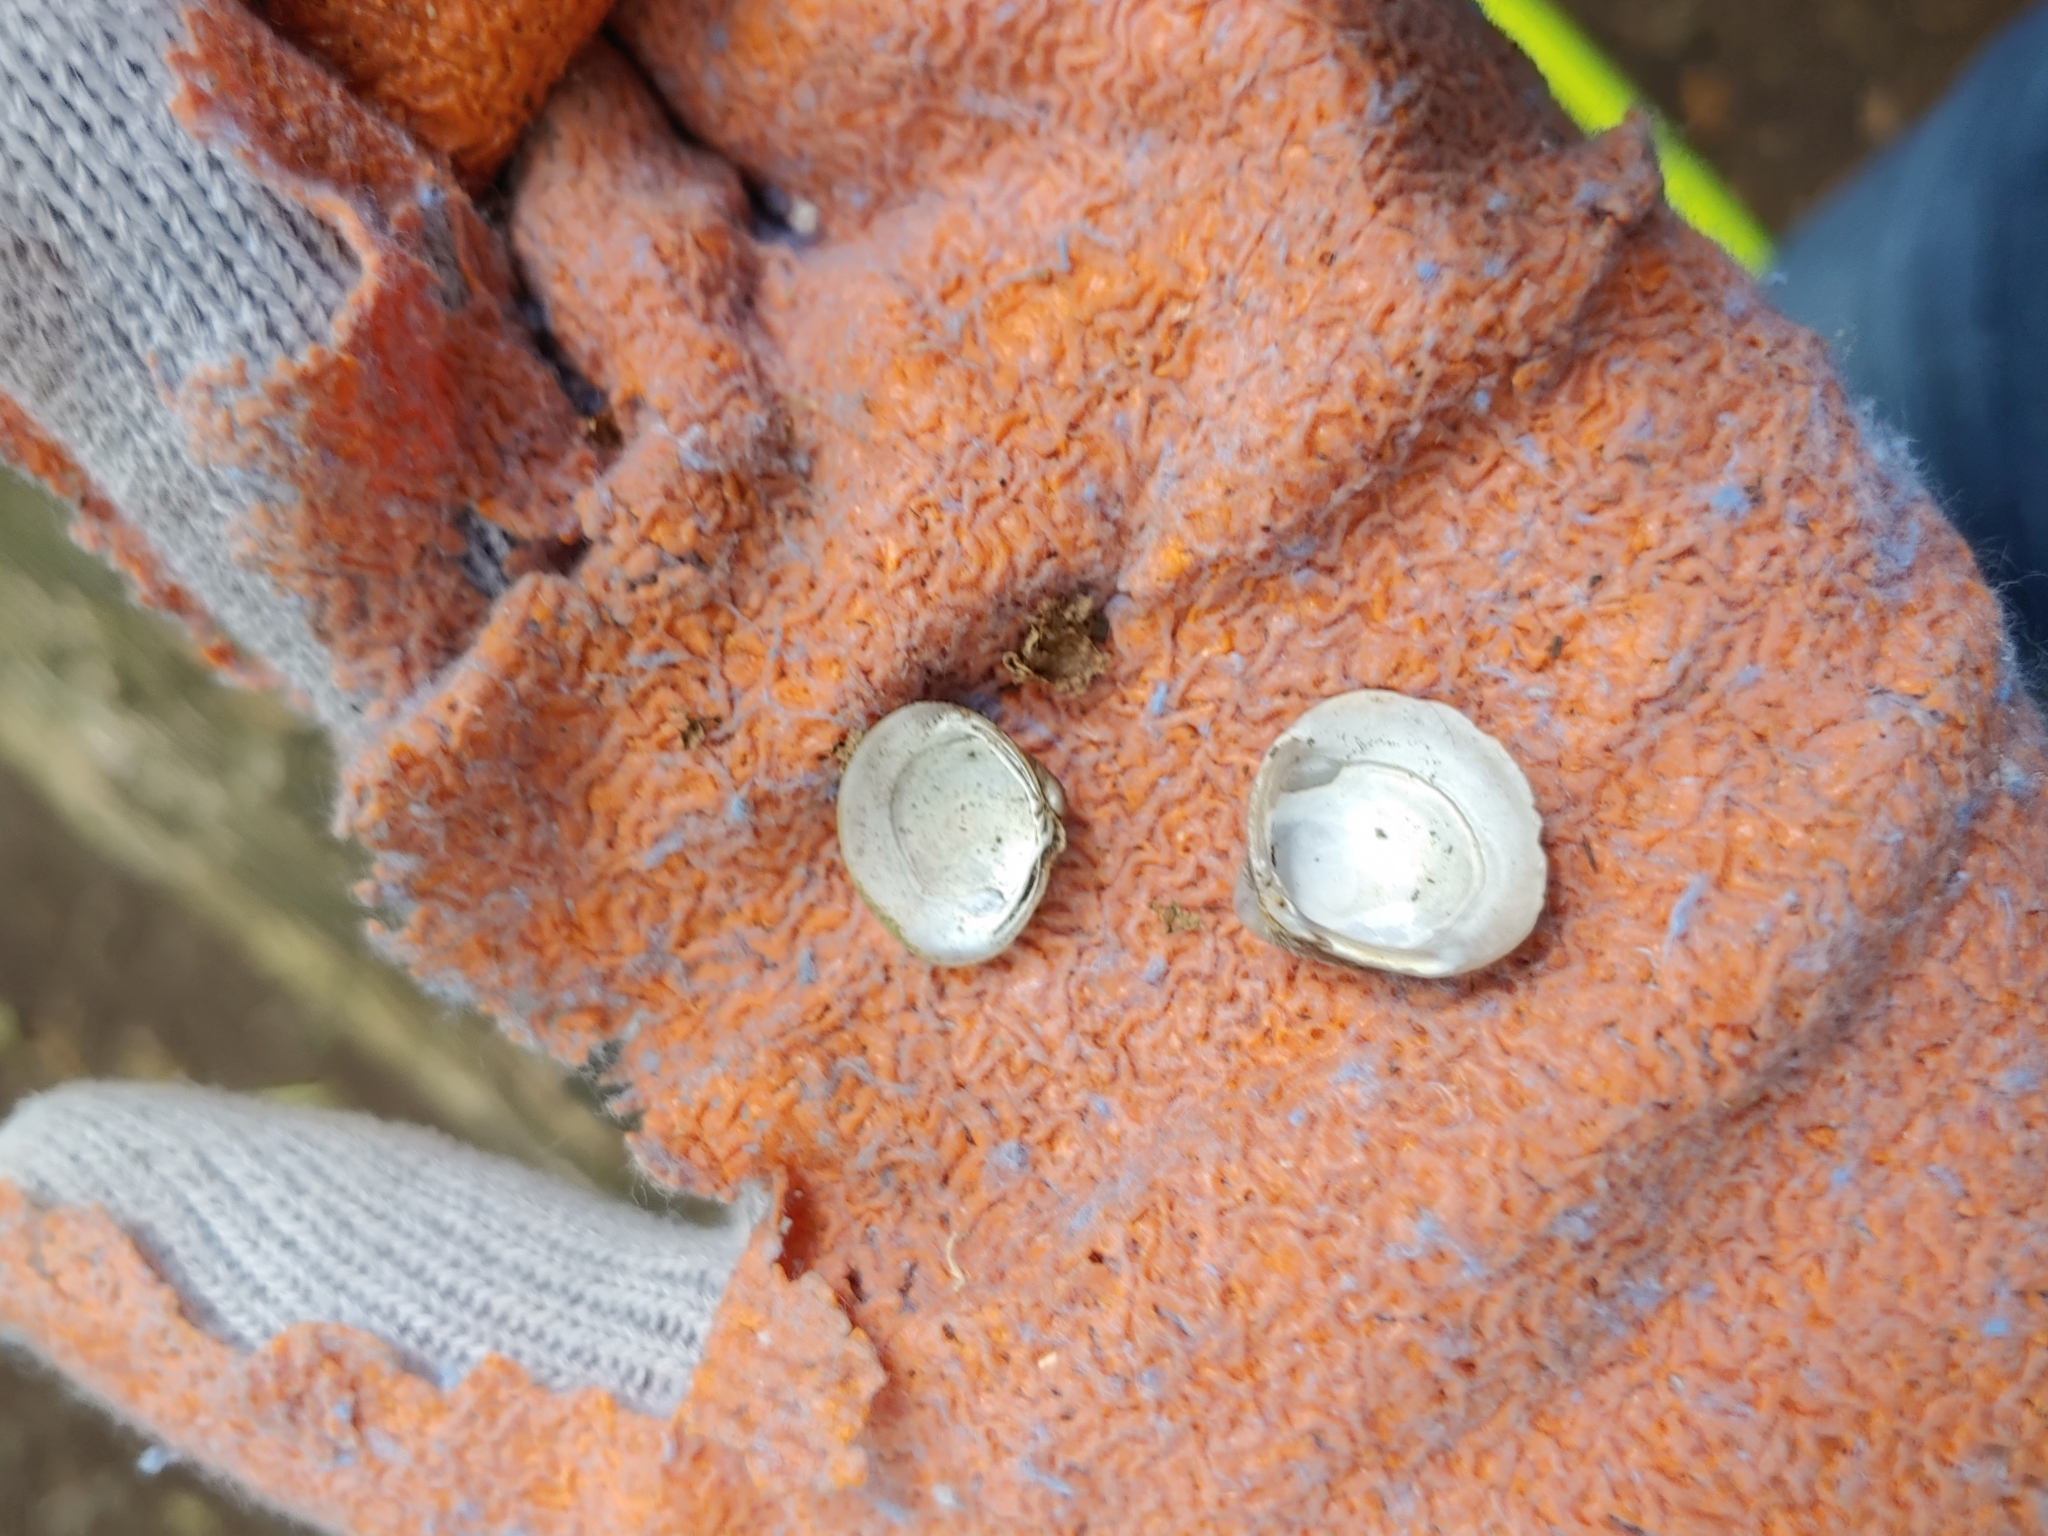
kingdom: Animalia
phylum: Mollusca
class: Bivalvia
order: Venerida
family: Cyrenidae
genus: Corbicula
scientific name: Corbicula fluminea
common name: Asian clam
